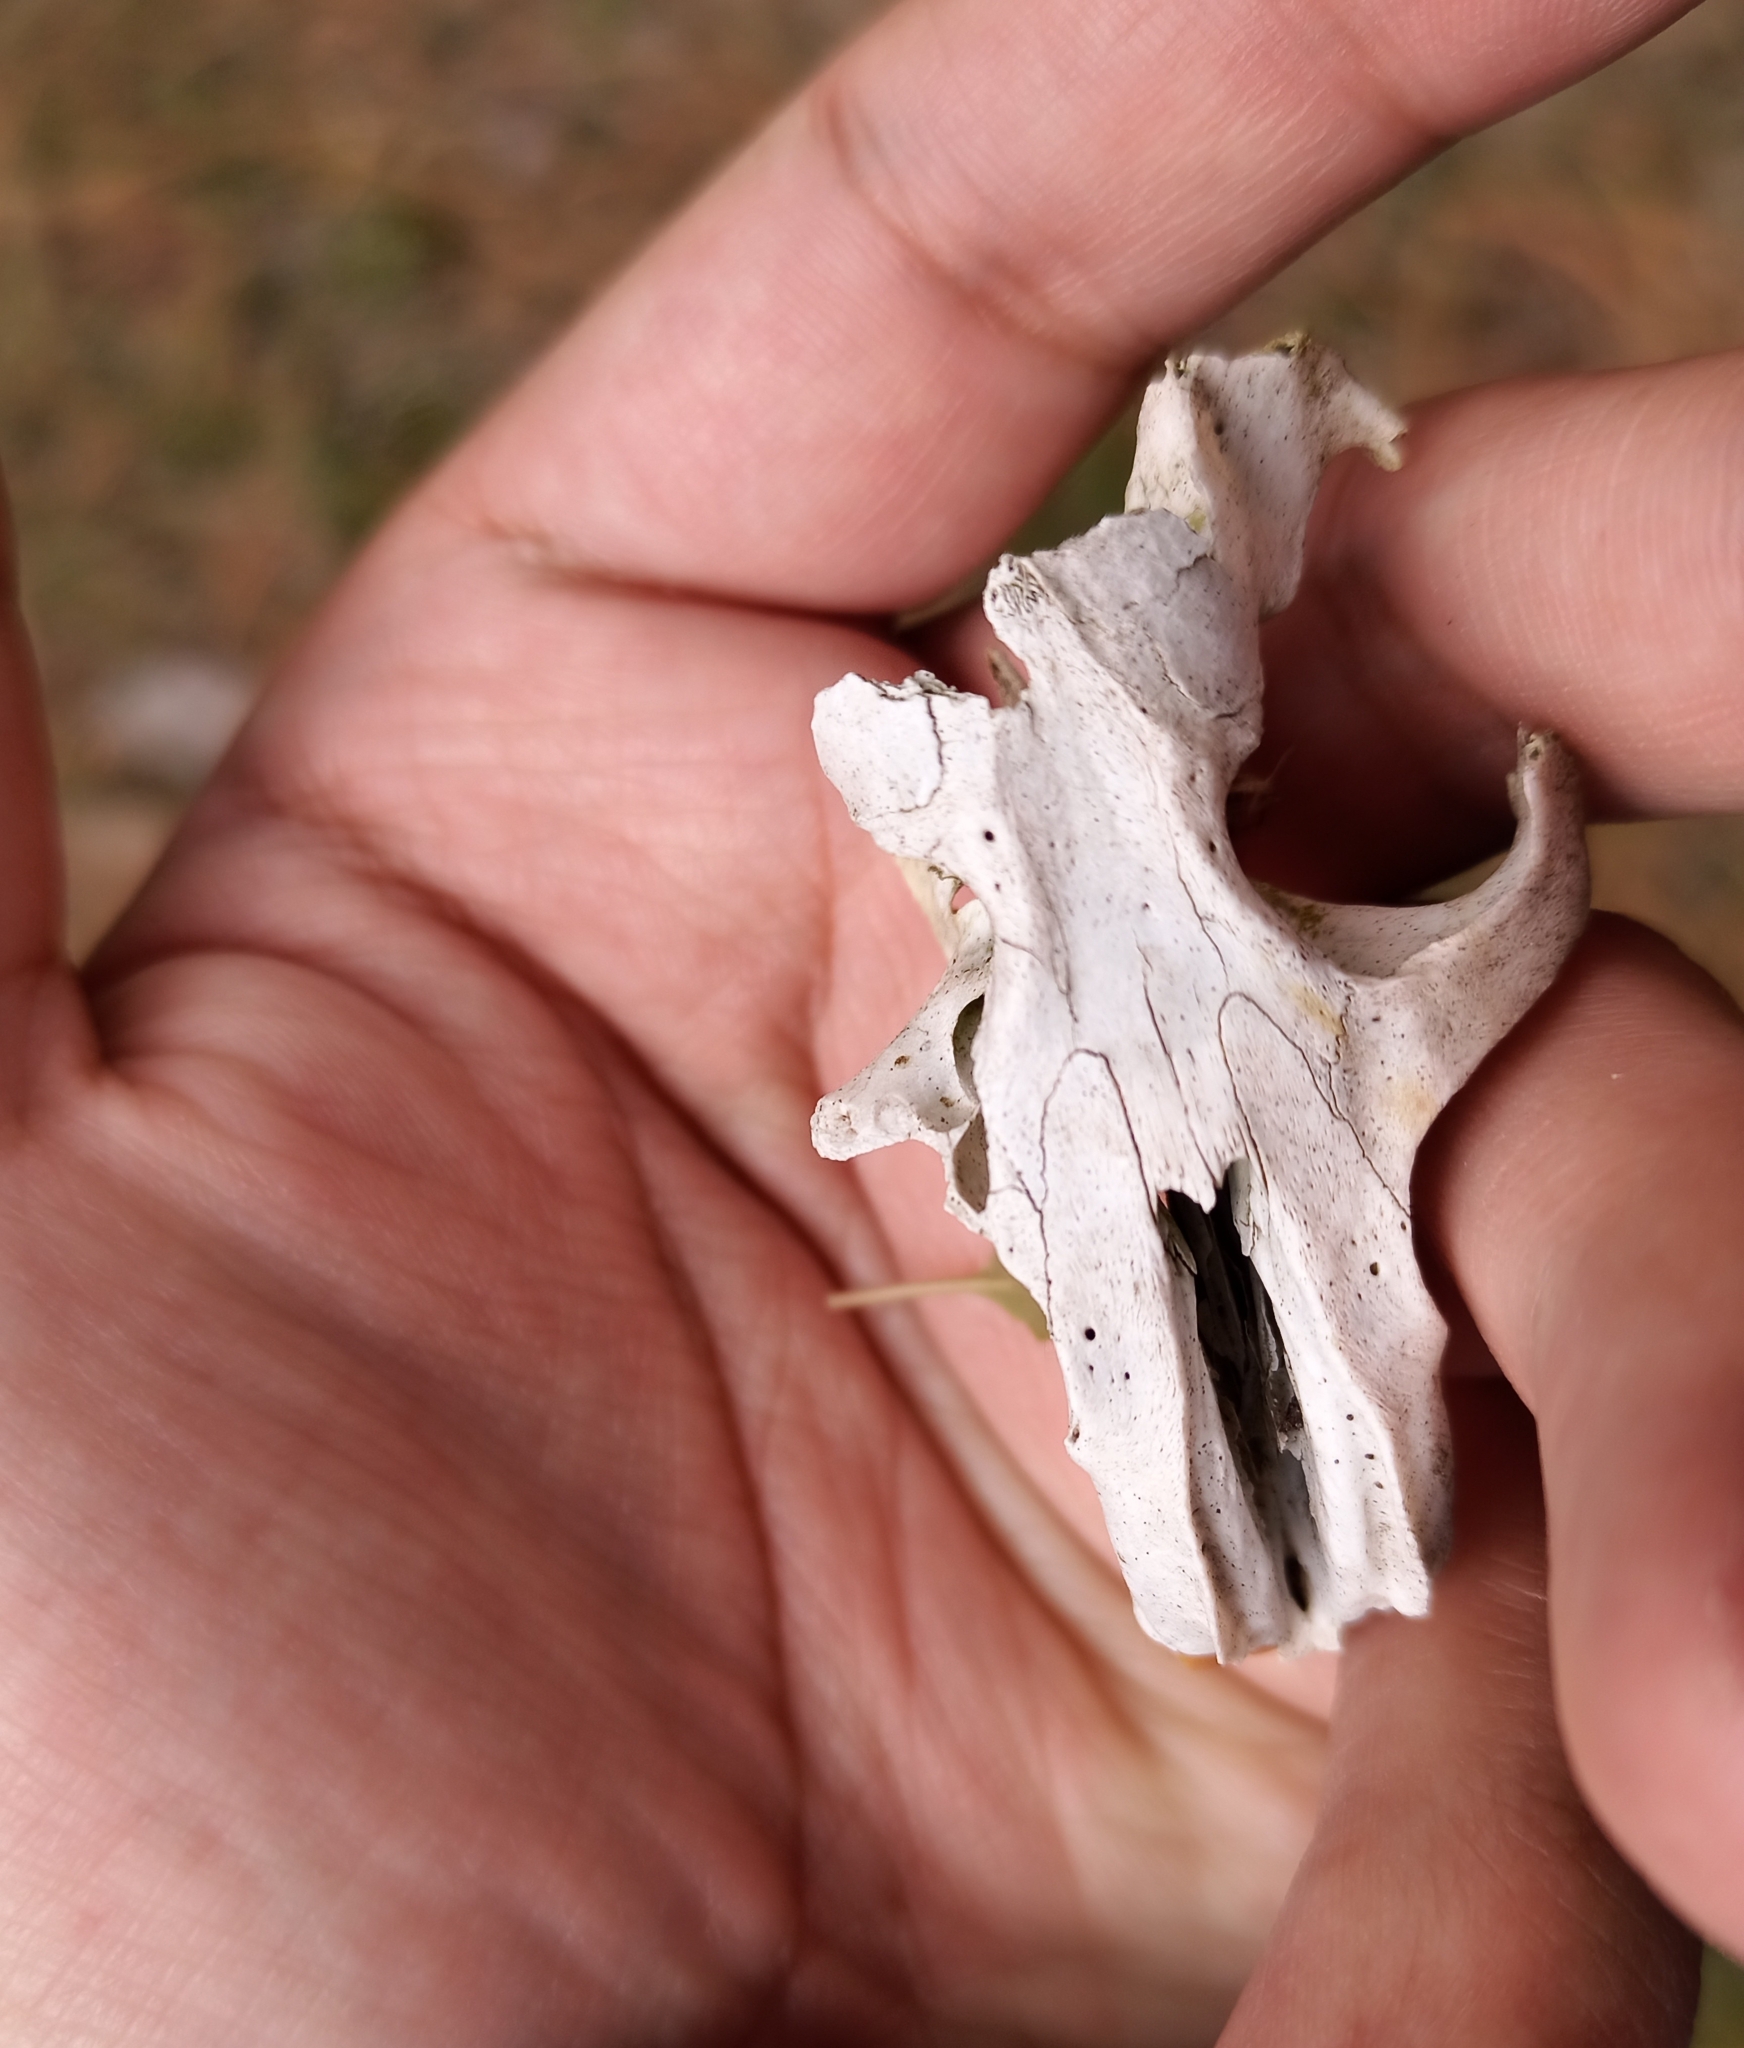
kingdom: Animalia
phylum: Chordata
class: Mammalia
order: Rodentia
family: Geomyidae
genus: Cratogeomys
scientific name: Cratogeomys merriami
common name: Merriam's pocket gopher
